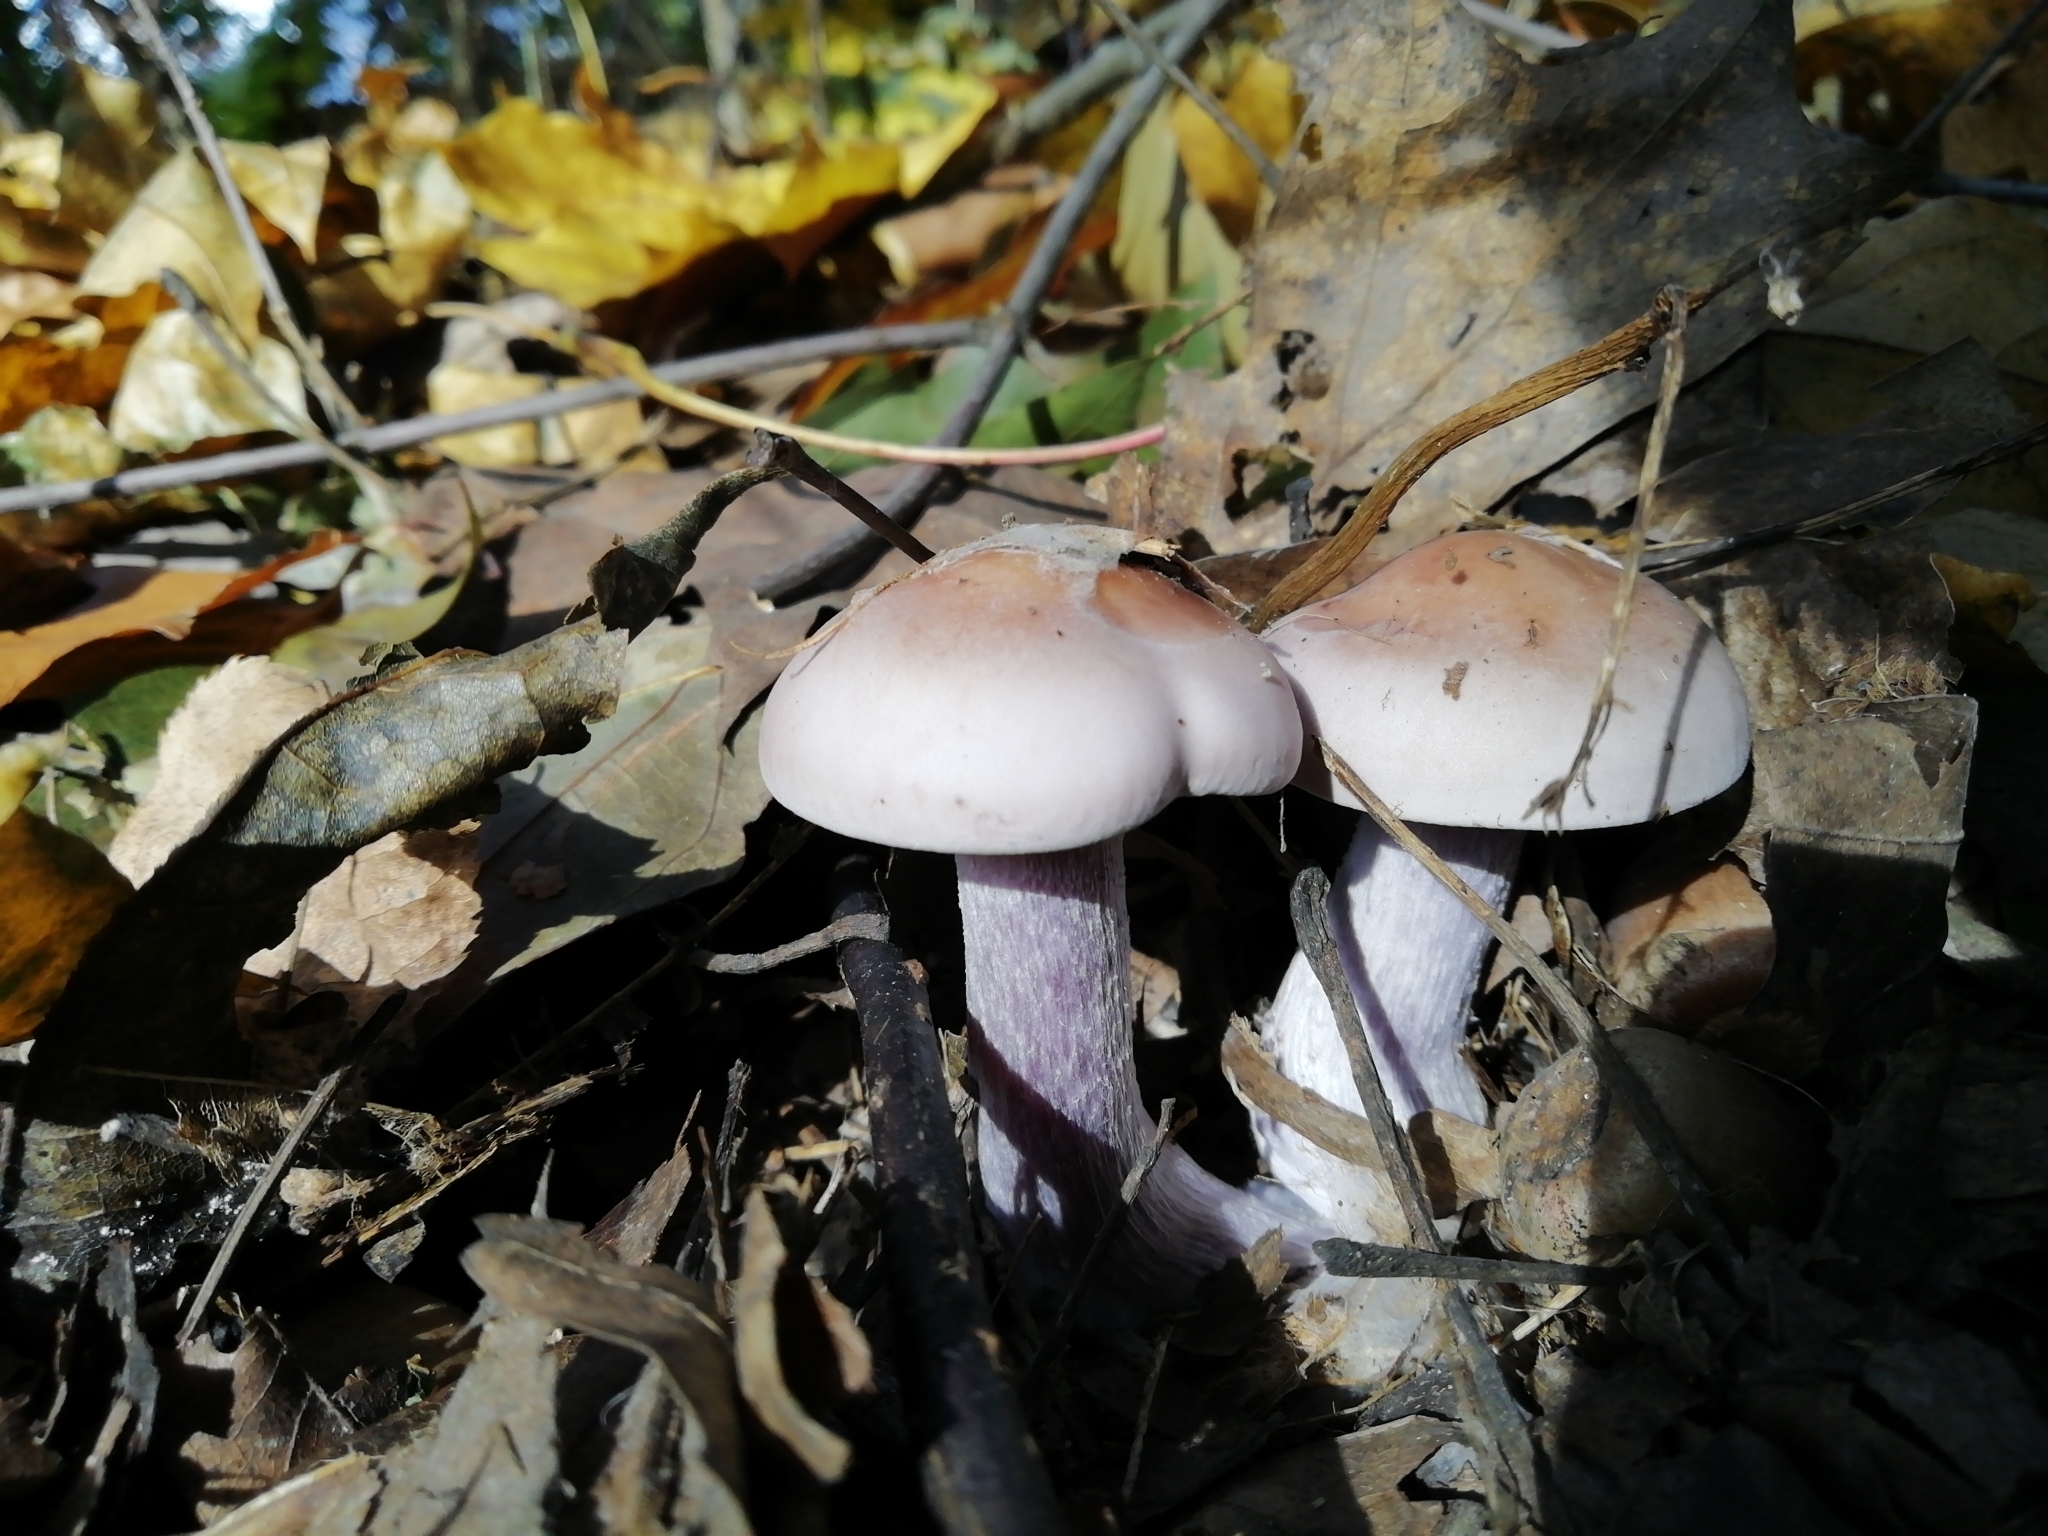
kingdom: Fungi
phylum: Basidiomycota
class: Agaricomycetes
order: Agaricales
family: Tricholomataceae
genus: Collybia
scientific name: Collybia
